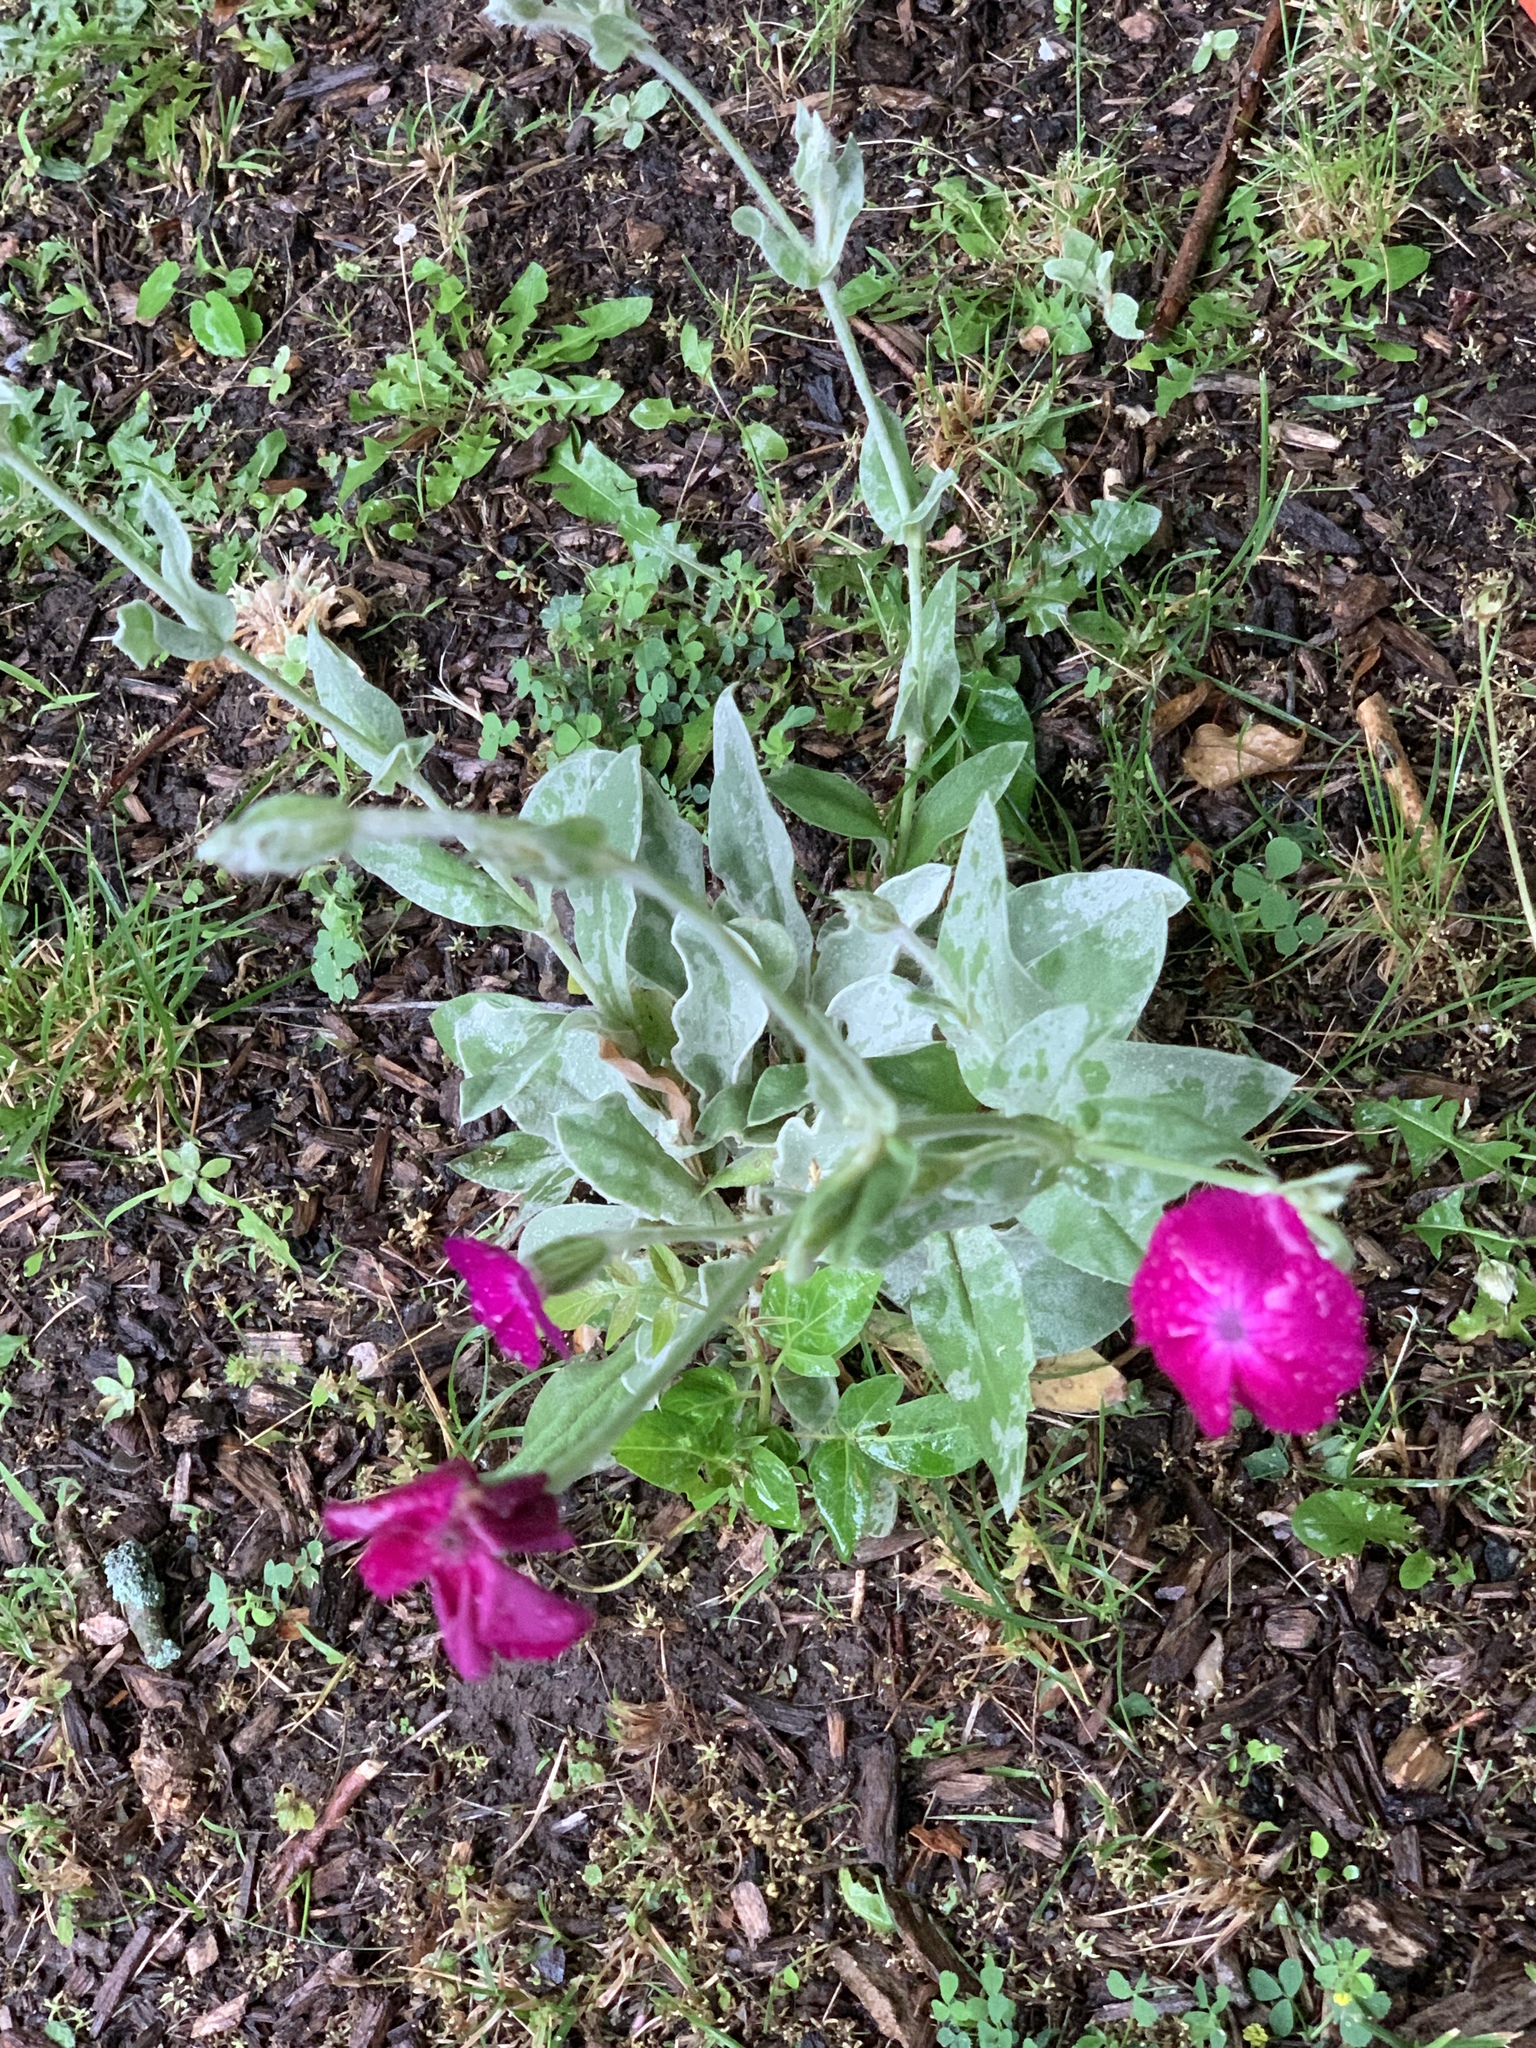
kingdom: Plantae
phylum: Tracheophyta
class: Magnoliopsida
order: Caryophyllales
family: Caryophyllaceae
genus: Silene
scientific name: Silene coronaria
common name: Rose campion
